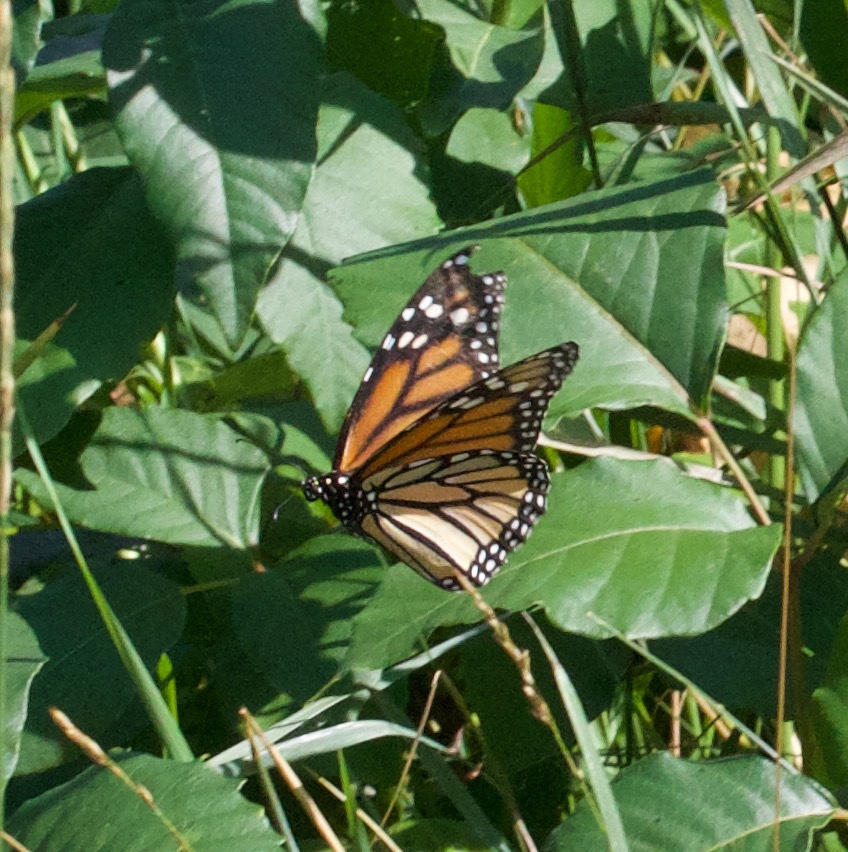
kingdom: Animalia
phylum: Arthropoda
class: Insecta
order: Lepidoptera
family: Nymphalidae
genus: Danaus
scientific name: Danaus plexippus
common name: Monarch
